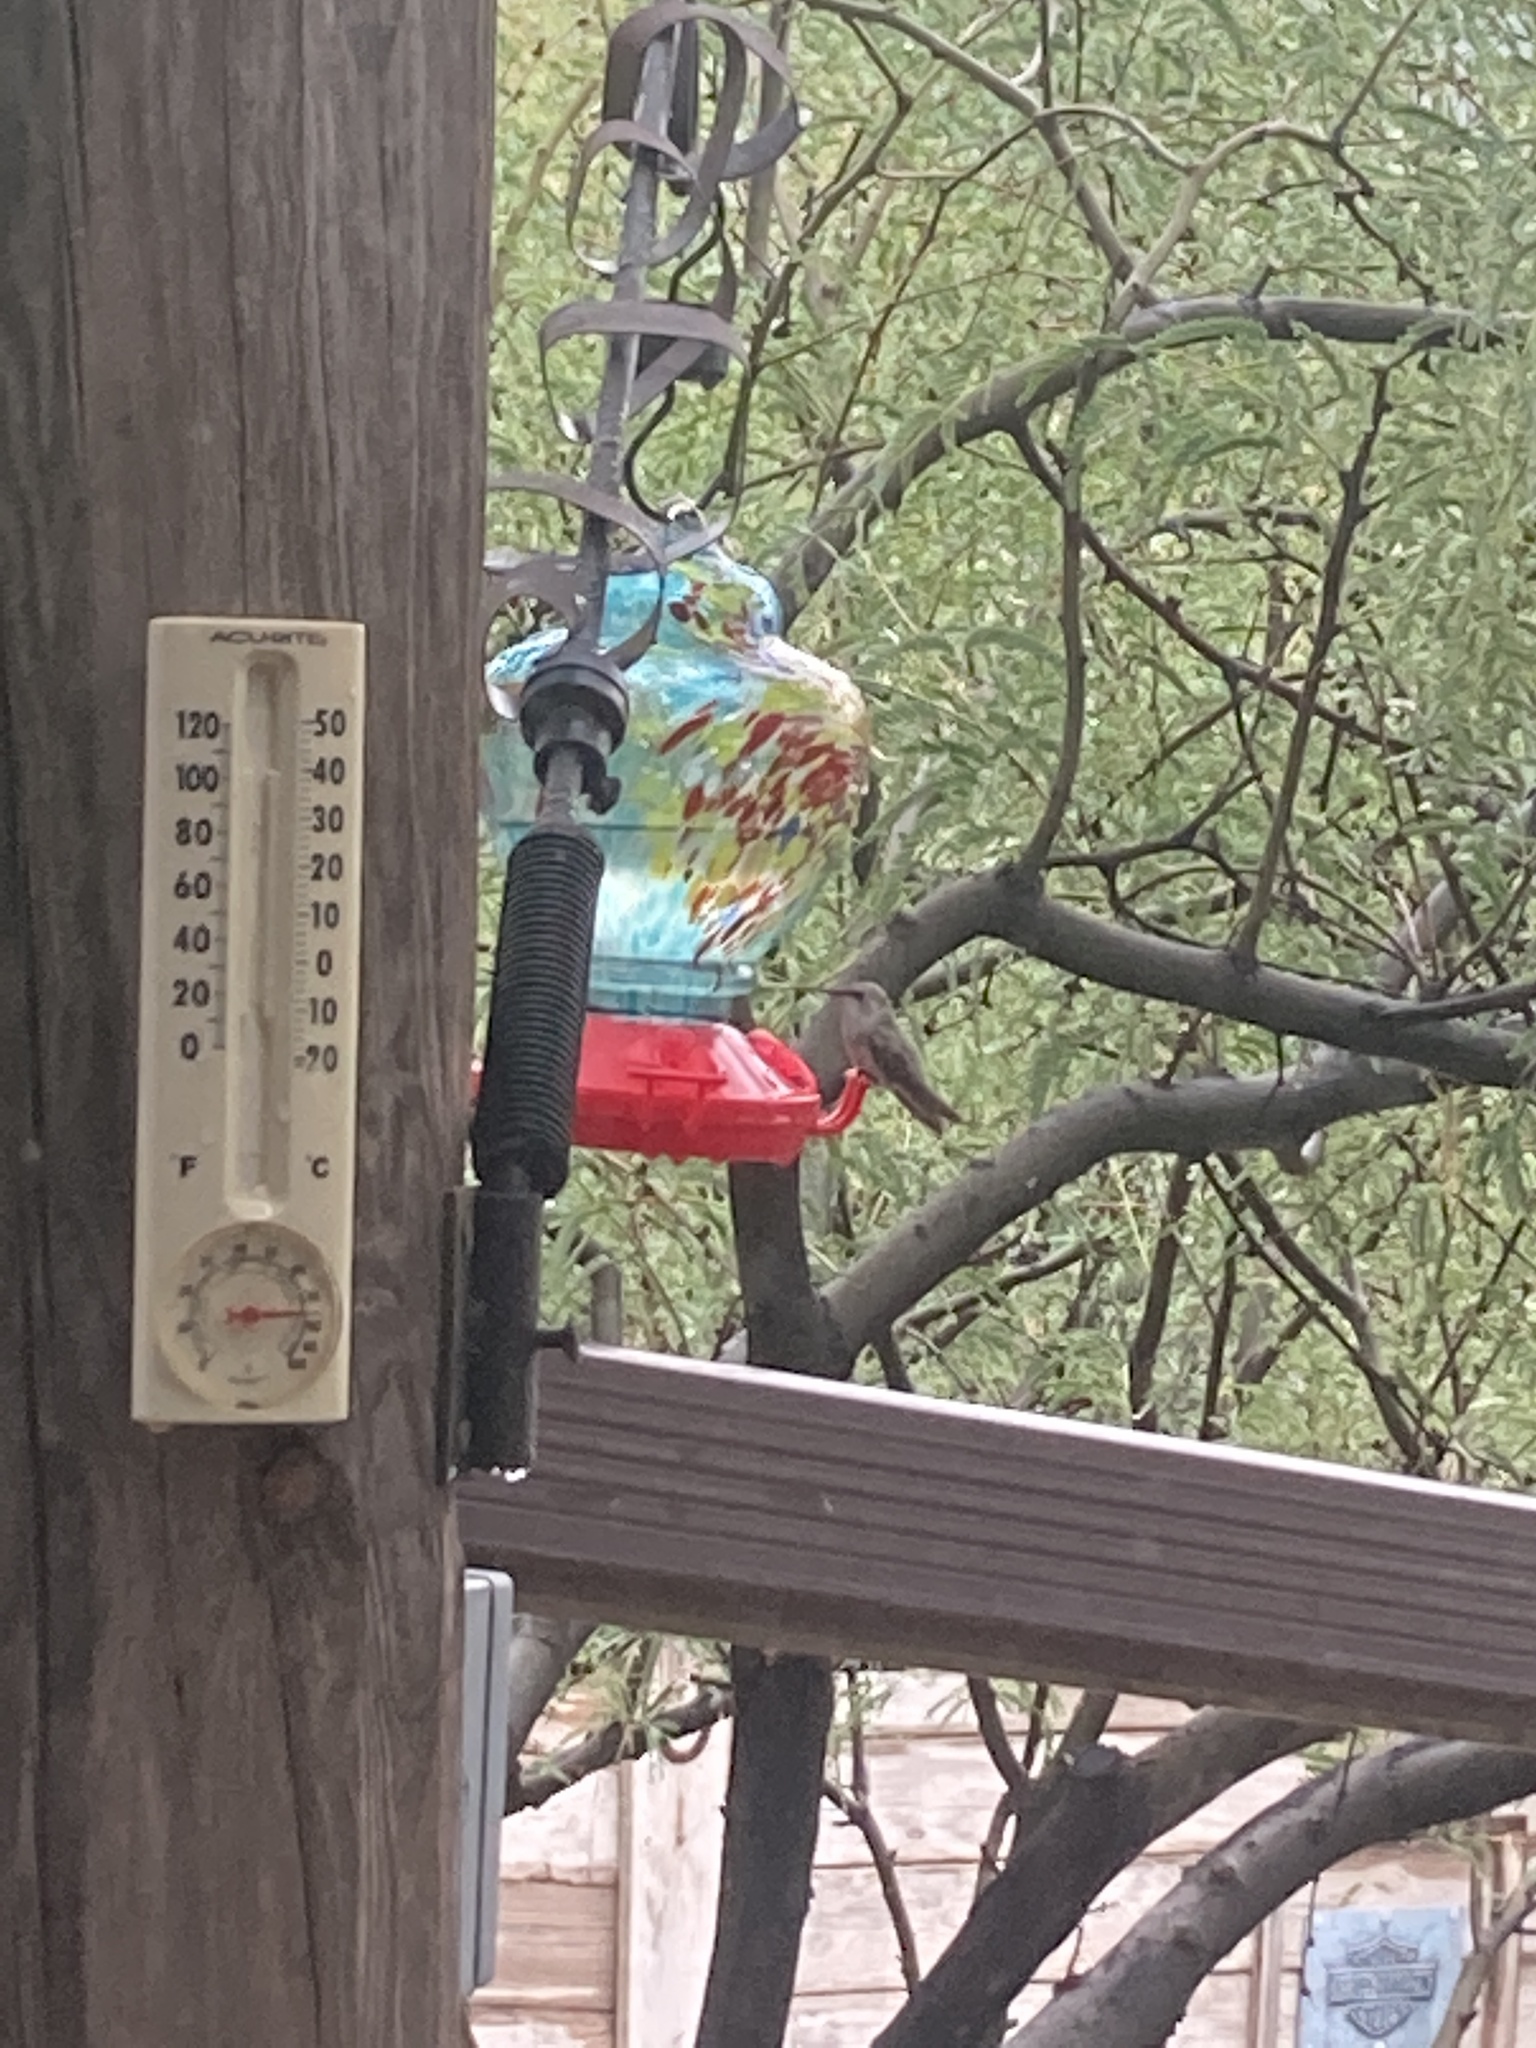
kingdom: Animalia
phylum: Chordata
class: Aves
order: Apodiformes
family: Trochilidae
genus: Calypte
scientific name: Calypte costae
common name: Costa's hummingbird
